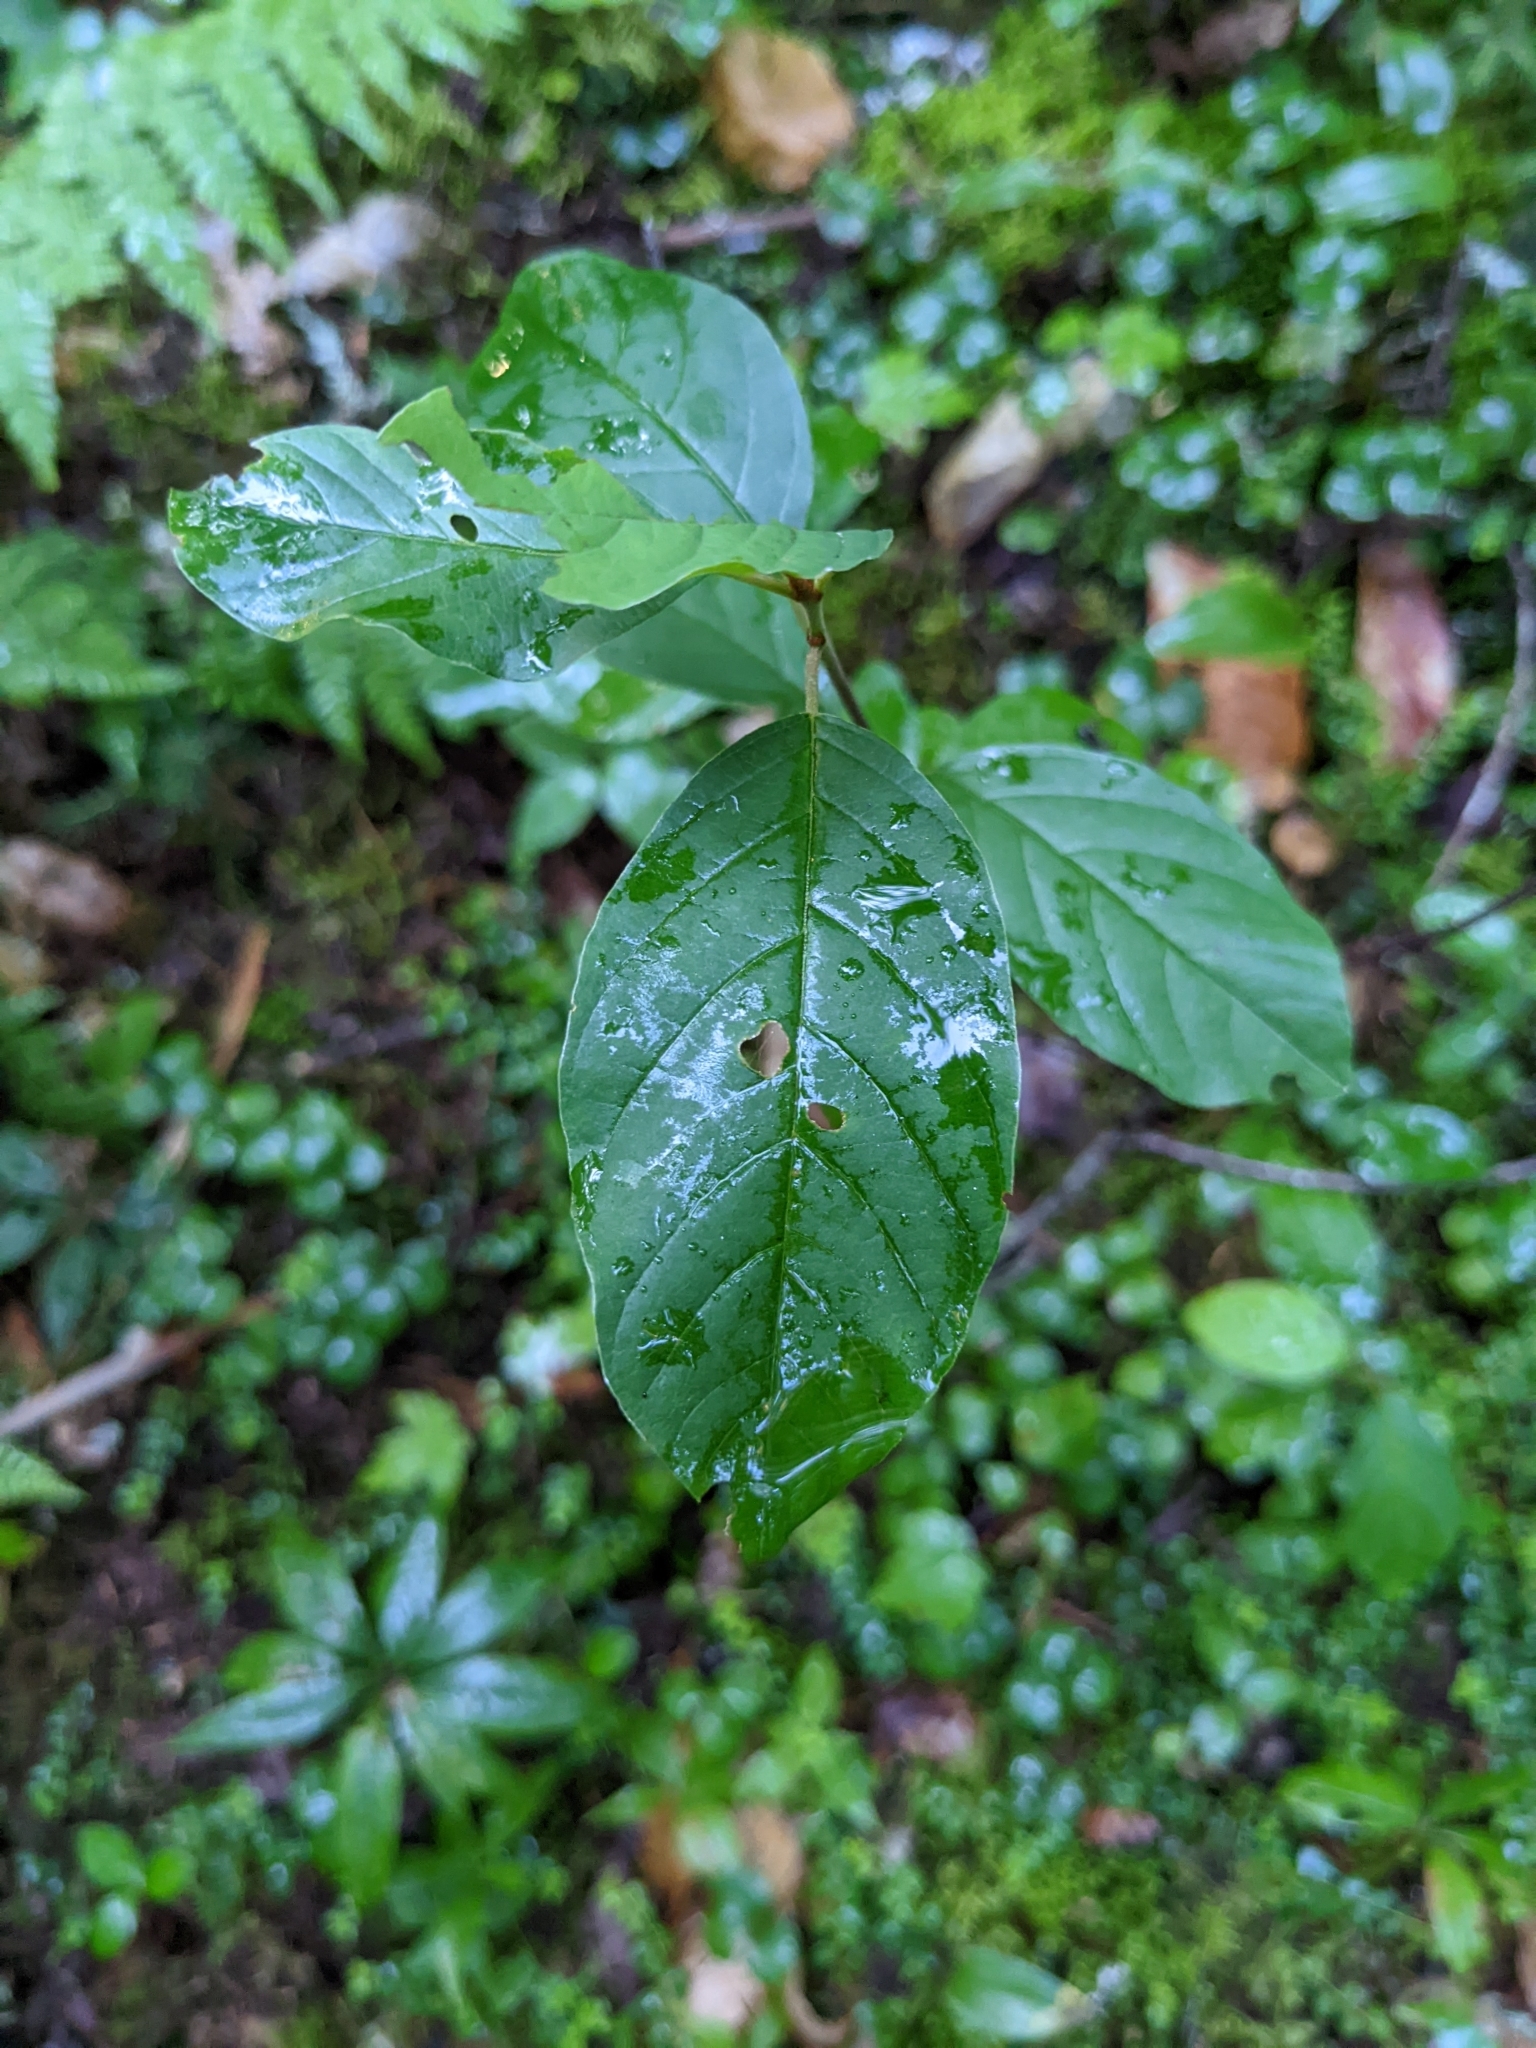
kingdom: Plantae
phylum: Tracheophyta
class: Magnoliopsida
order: Rosales
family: Rhamnaceae
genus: Frangula
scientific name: Frangula alnus
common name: Alder buckthorn
